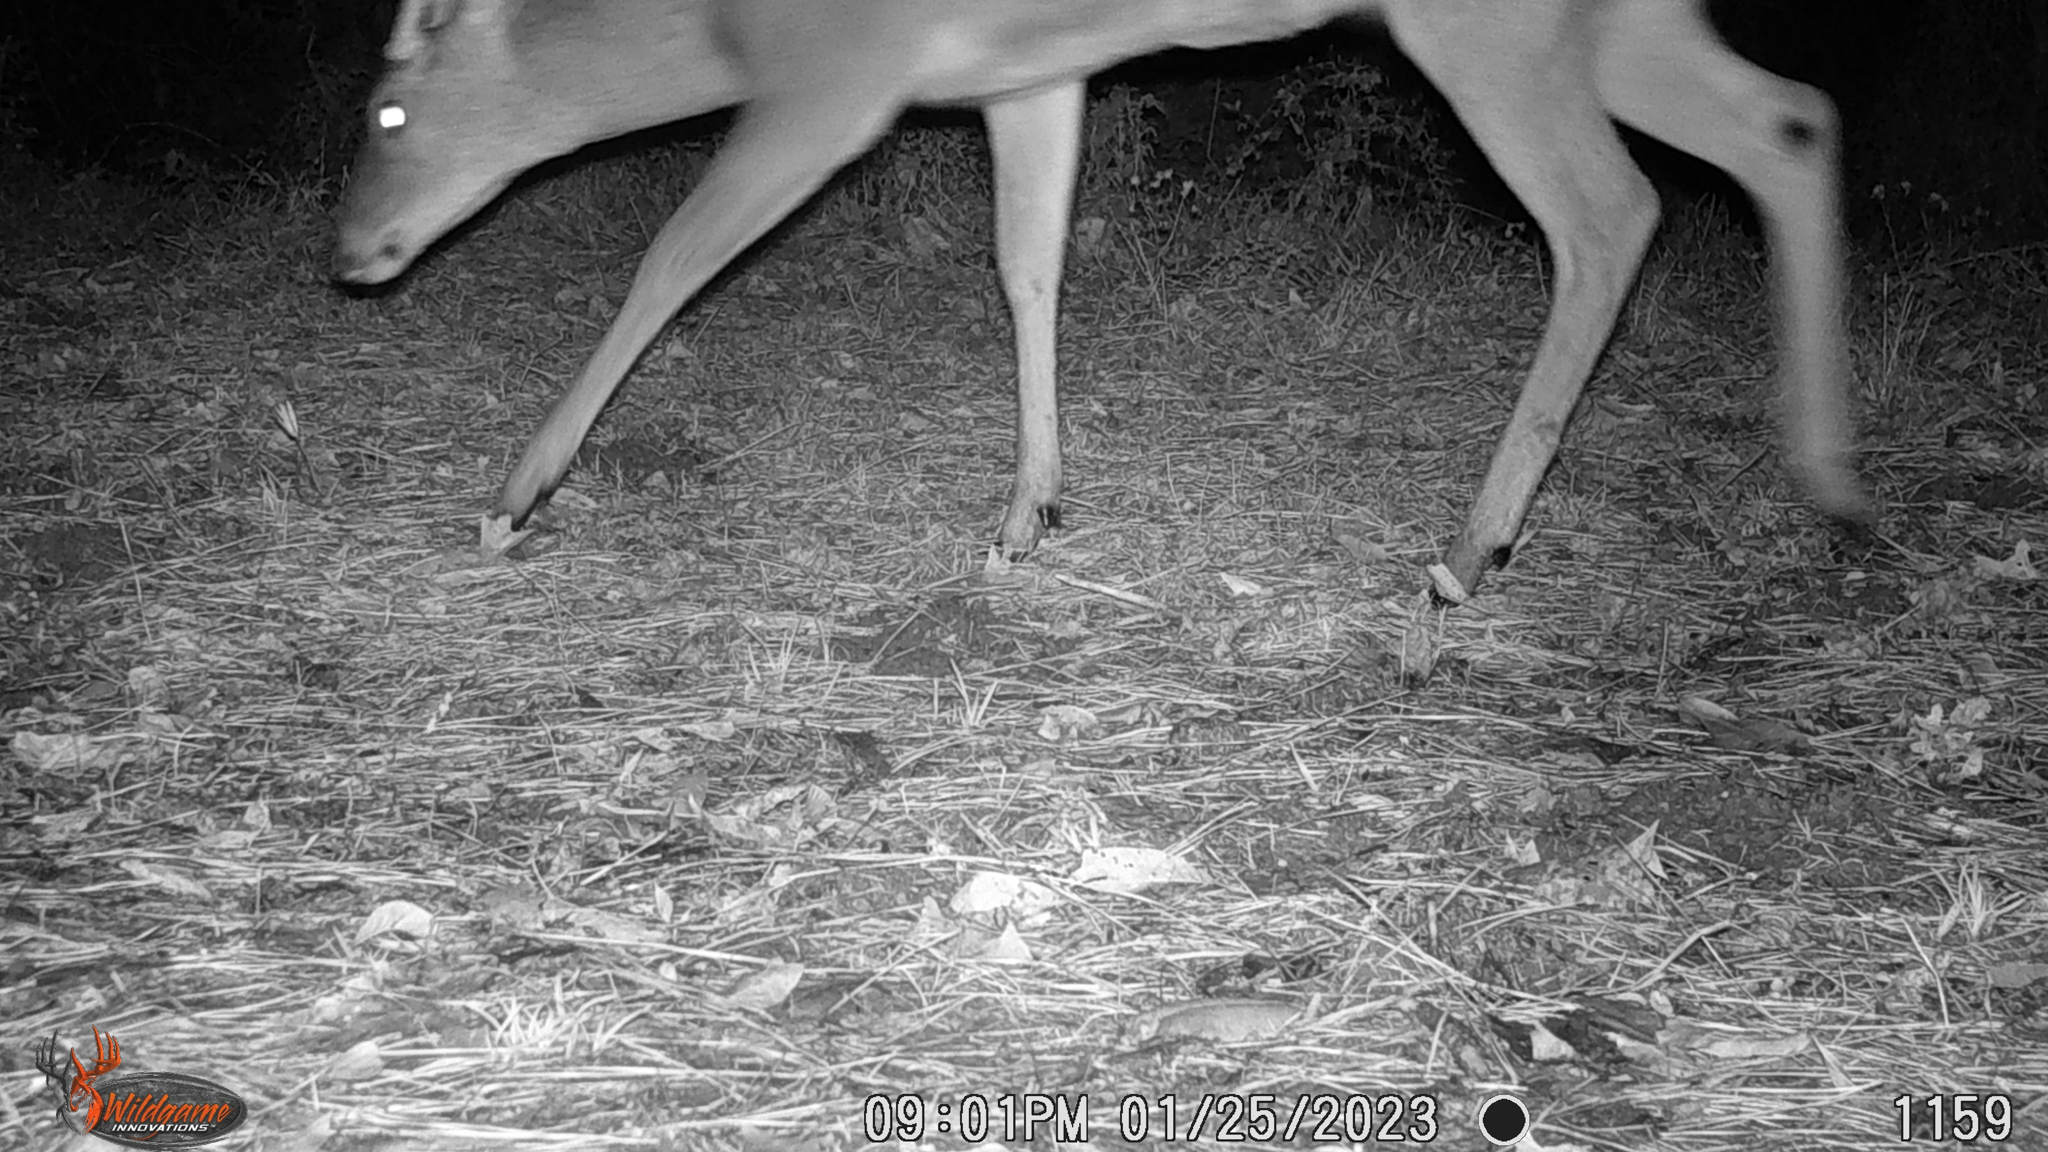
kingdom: Animalia
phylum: Chordata
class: Mammalia
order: Artiodactyla
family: Cervidae
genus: Odocoileus
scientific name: Odocoileus virginianus
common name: White-tailed deer
